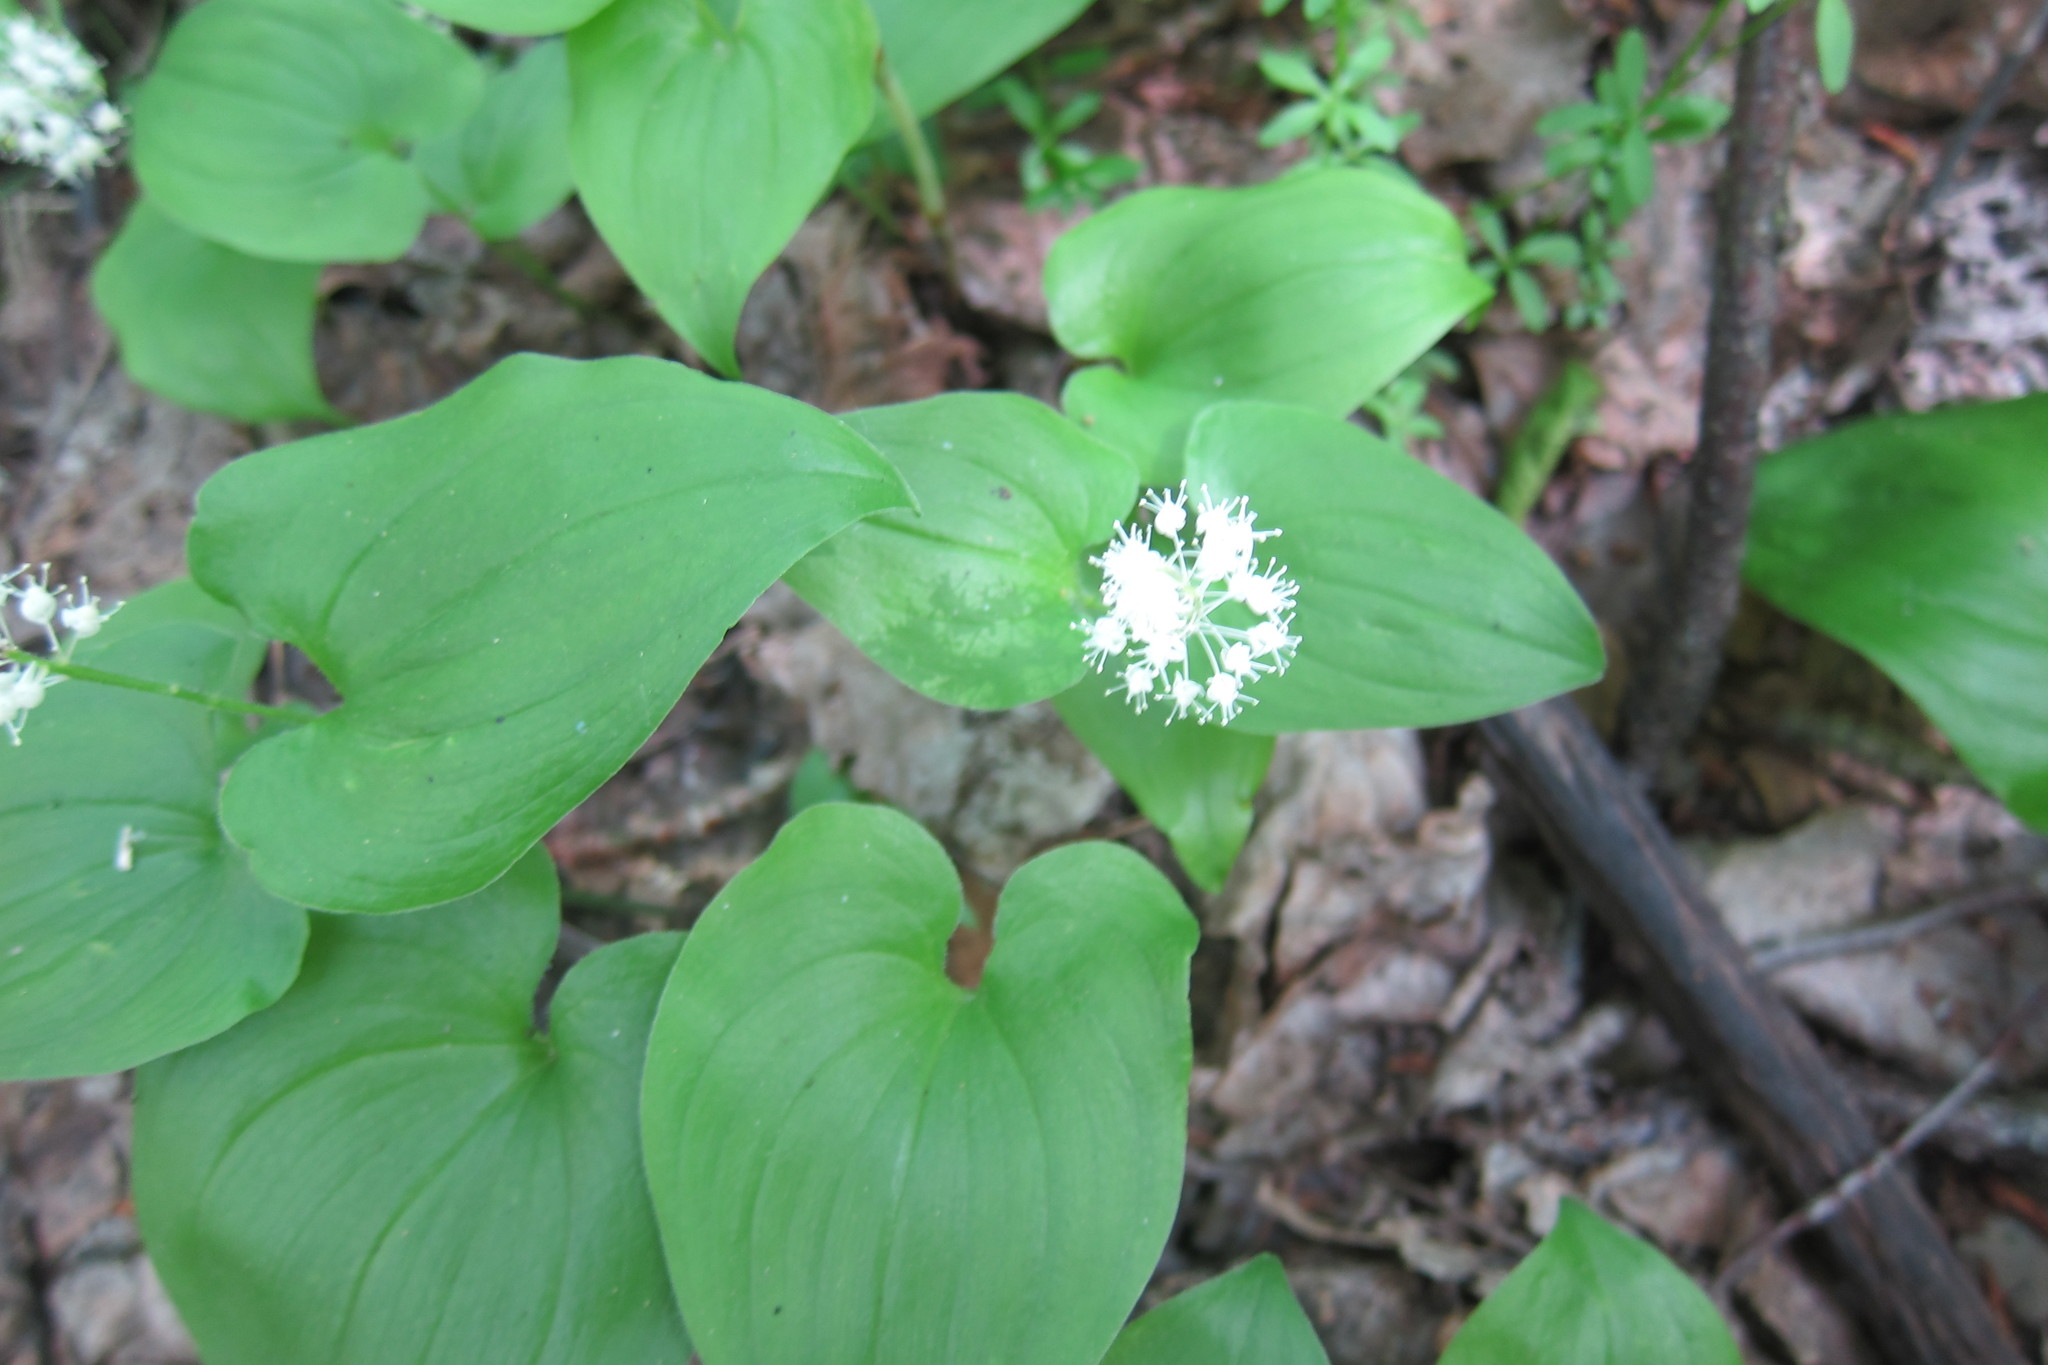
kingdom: Plantae
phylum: Tracheophyta
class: Liliopsida
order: Asparagales
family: Asparagaceae
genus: Maianthemum
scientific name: Maianthemum bifolium
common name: May lily
